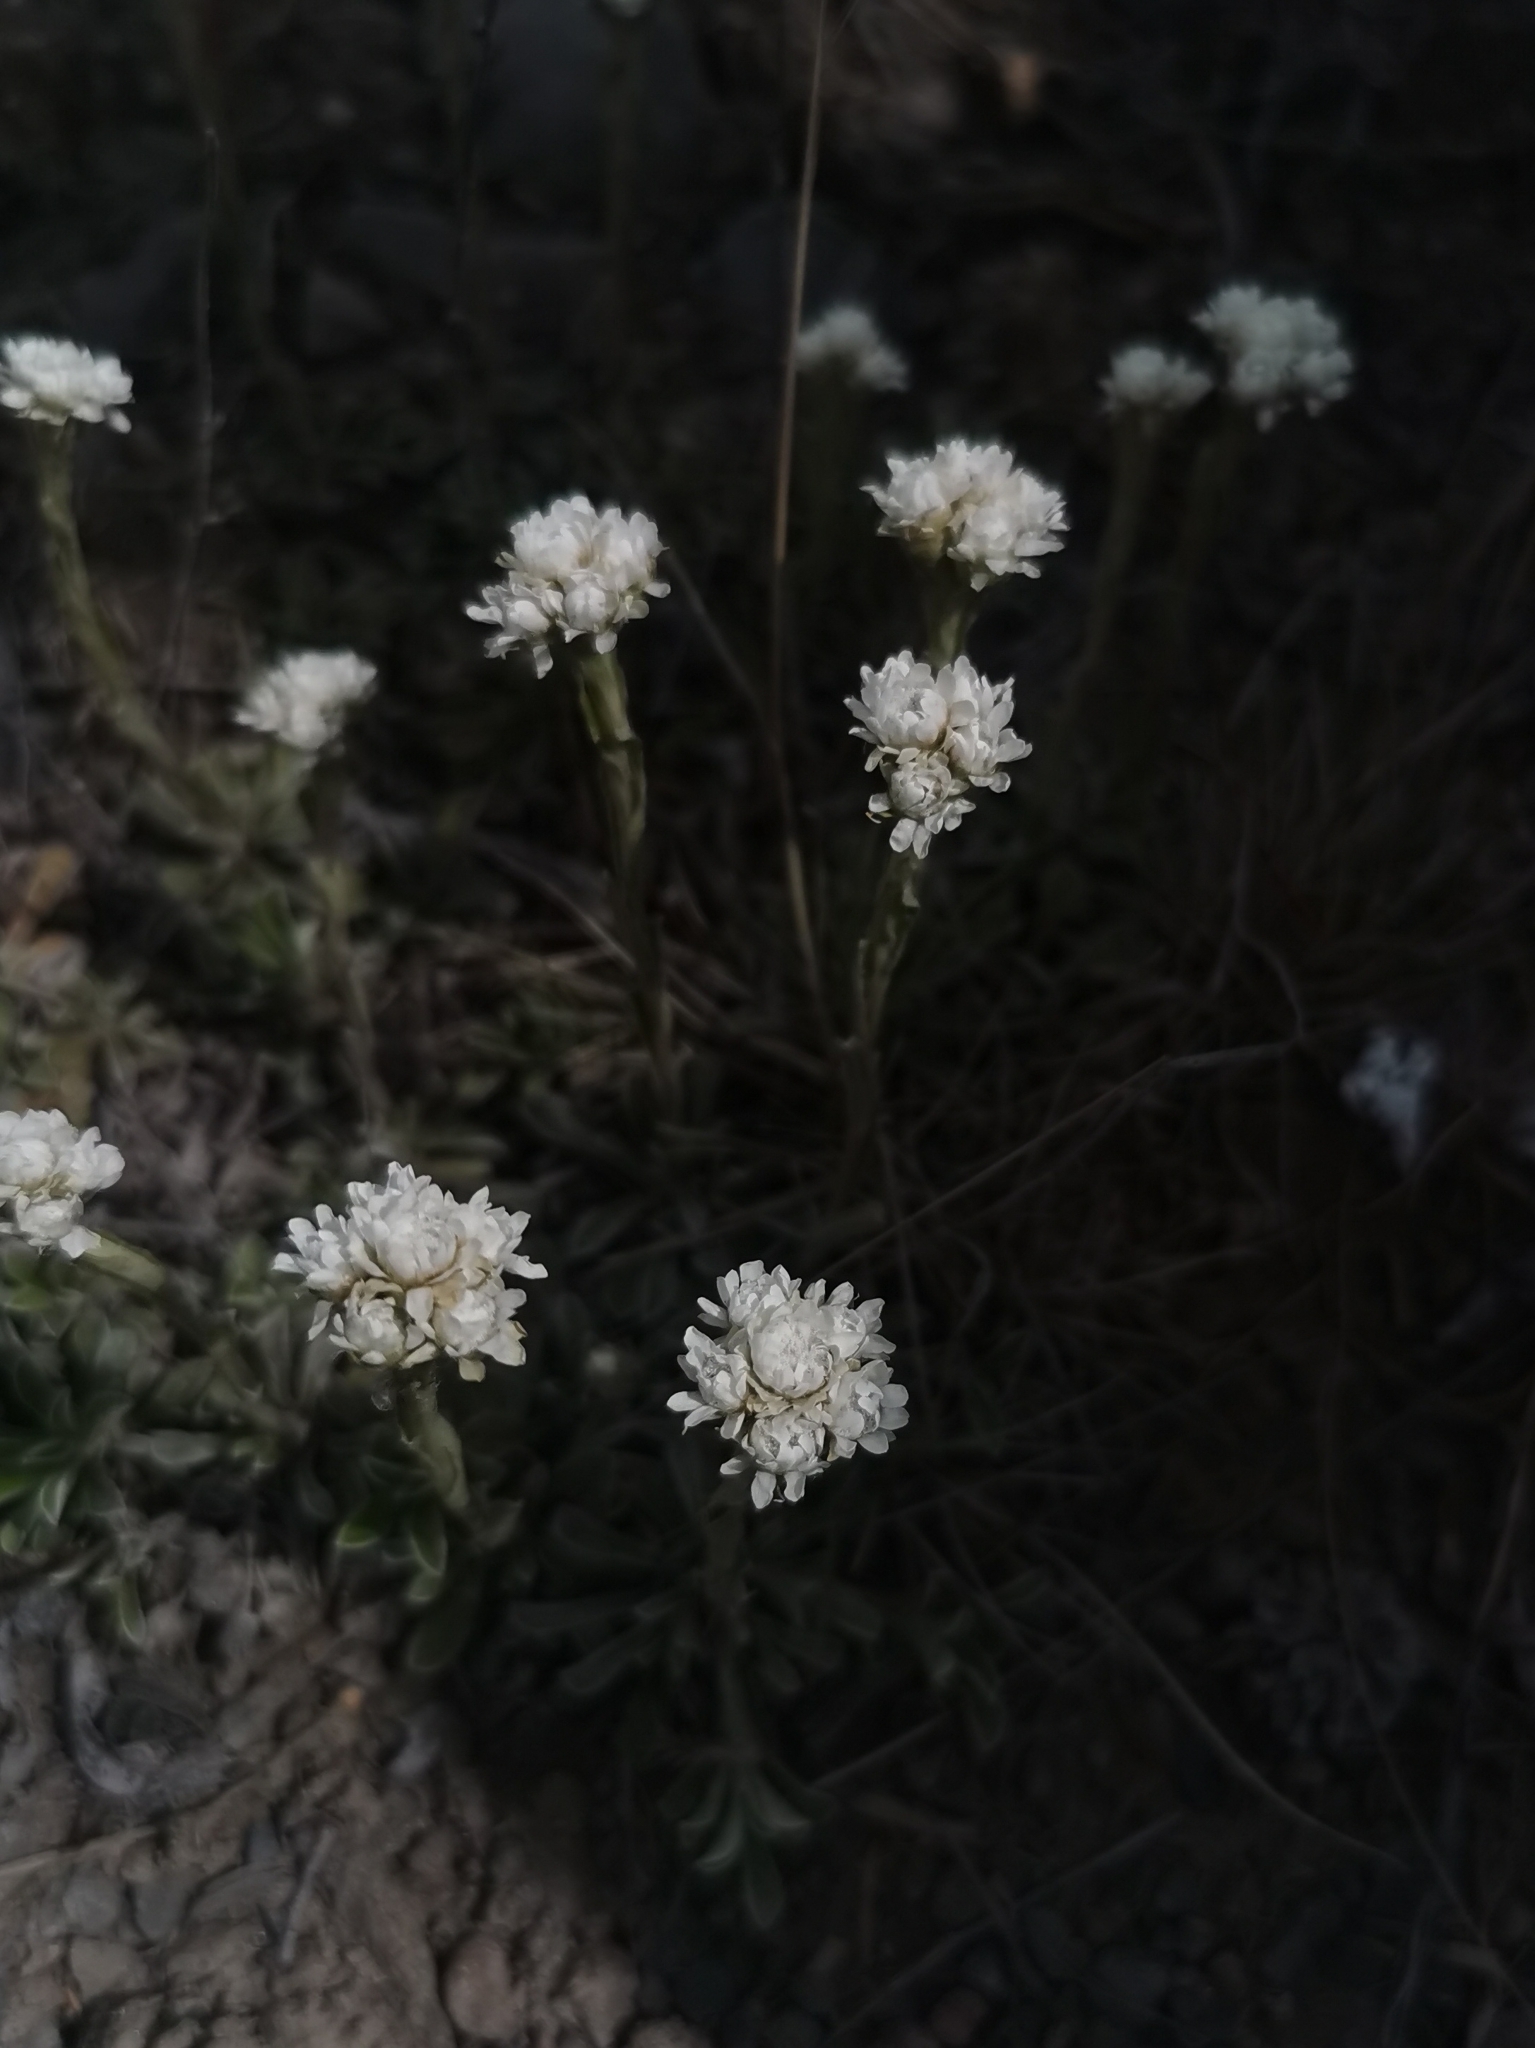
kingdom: Plantae
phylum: Tracheophyta
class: Magnoliopsida
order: Asterales
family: Asteraceae
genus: Antennaria
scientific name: Antennaria dioica
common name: Mountain everlasting
